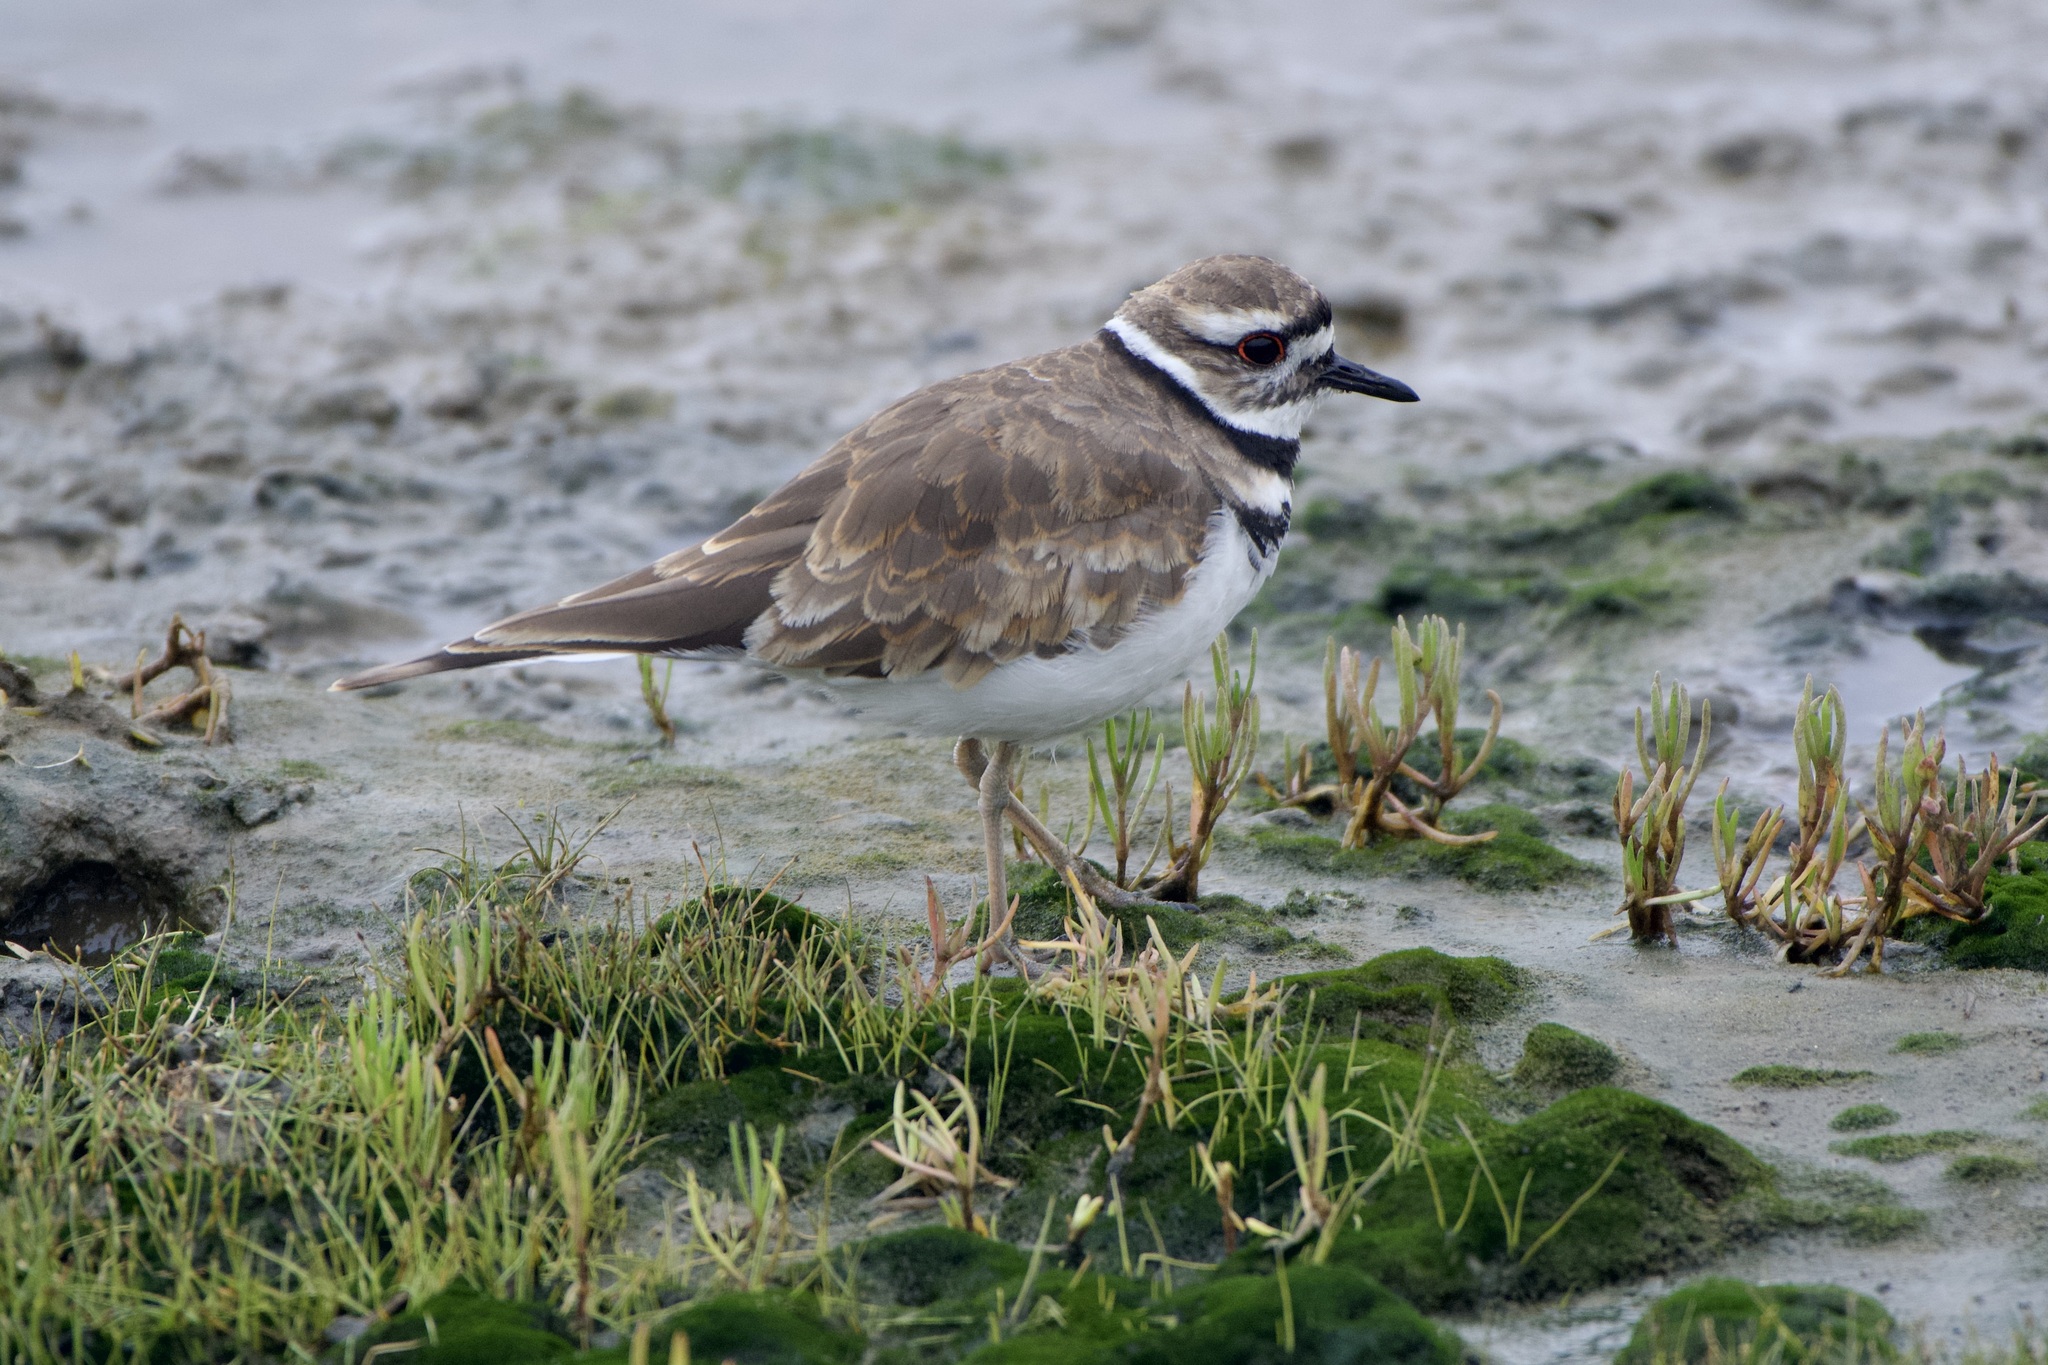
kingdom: Animalia
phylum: Chordata
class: Aves
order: Charadriiformes
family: Charadriidae
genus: Charadrius
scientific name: Charadrius vociferus
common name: Killdeer
